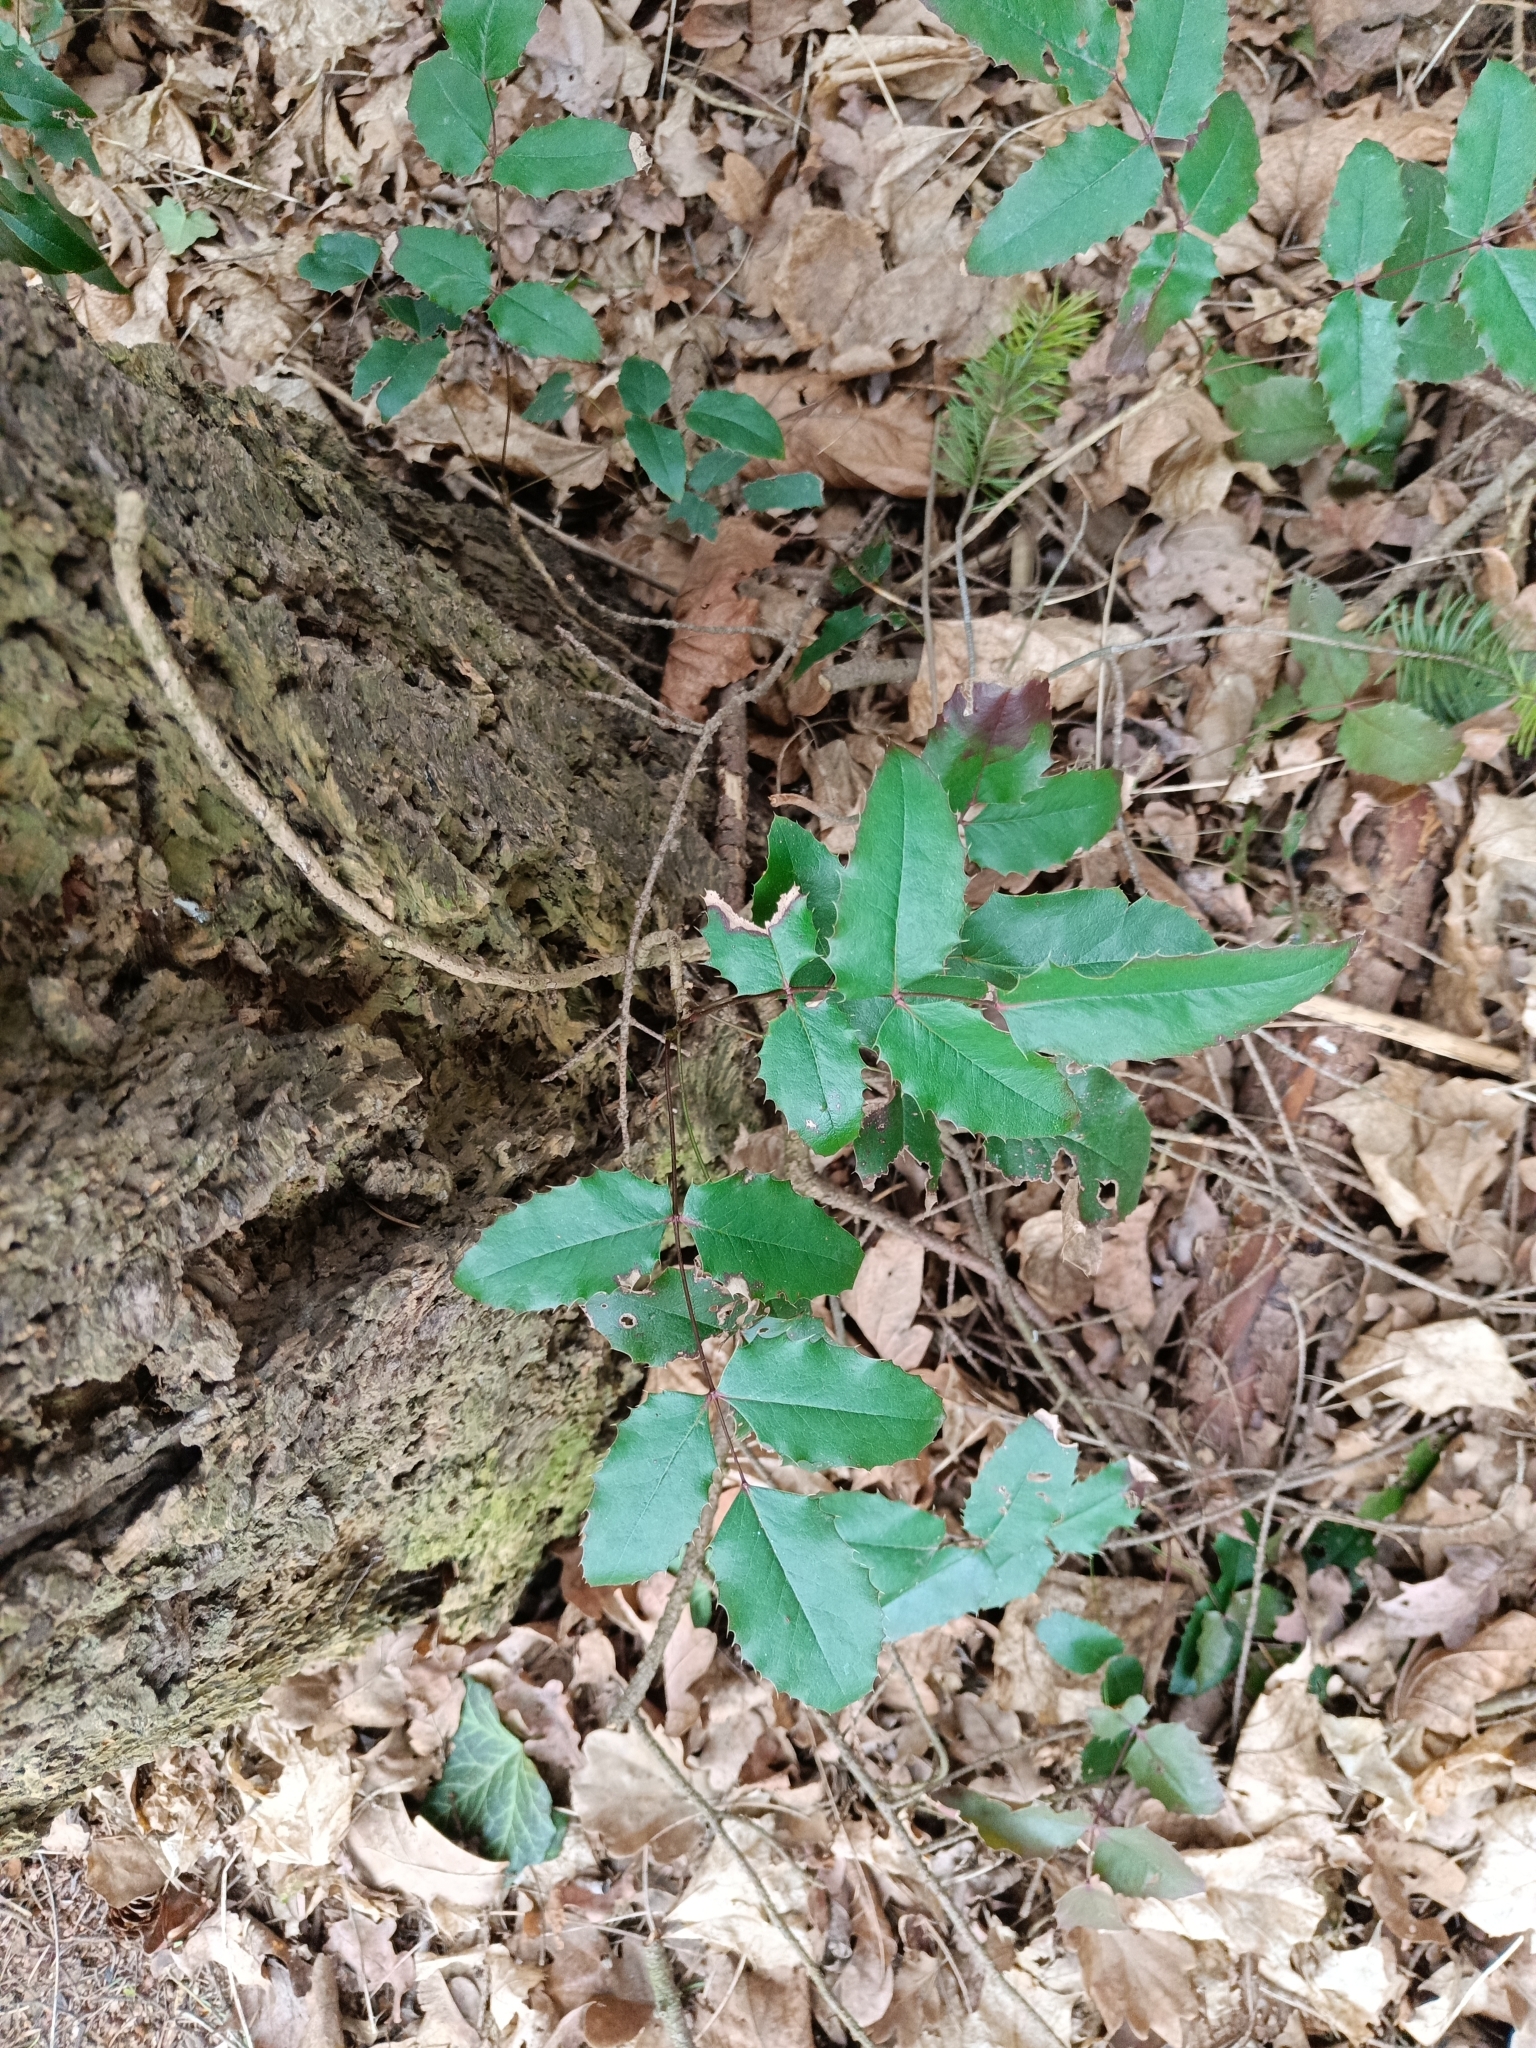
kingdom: Plantae
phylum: Tracheophyta
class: Magnoliopsida
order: Ranunculales
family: Berberidaceae
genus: Mahonia
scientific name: Mahonia aquifolium
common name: Oregon-grape
